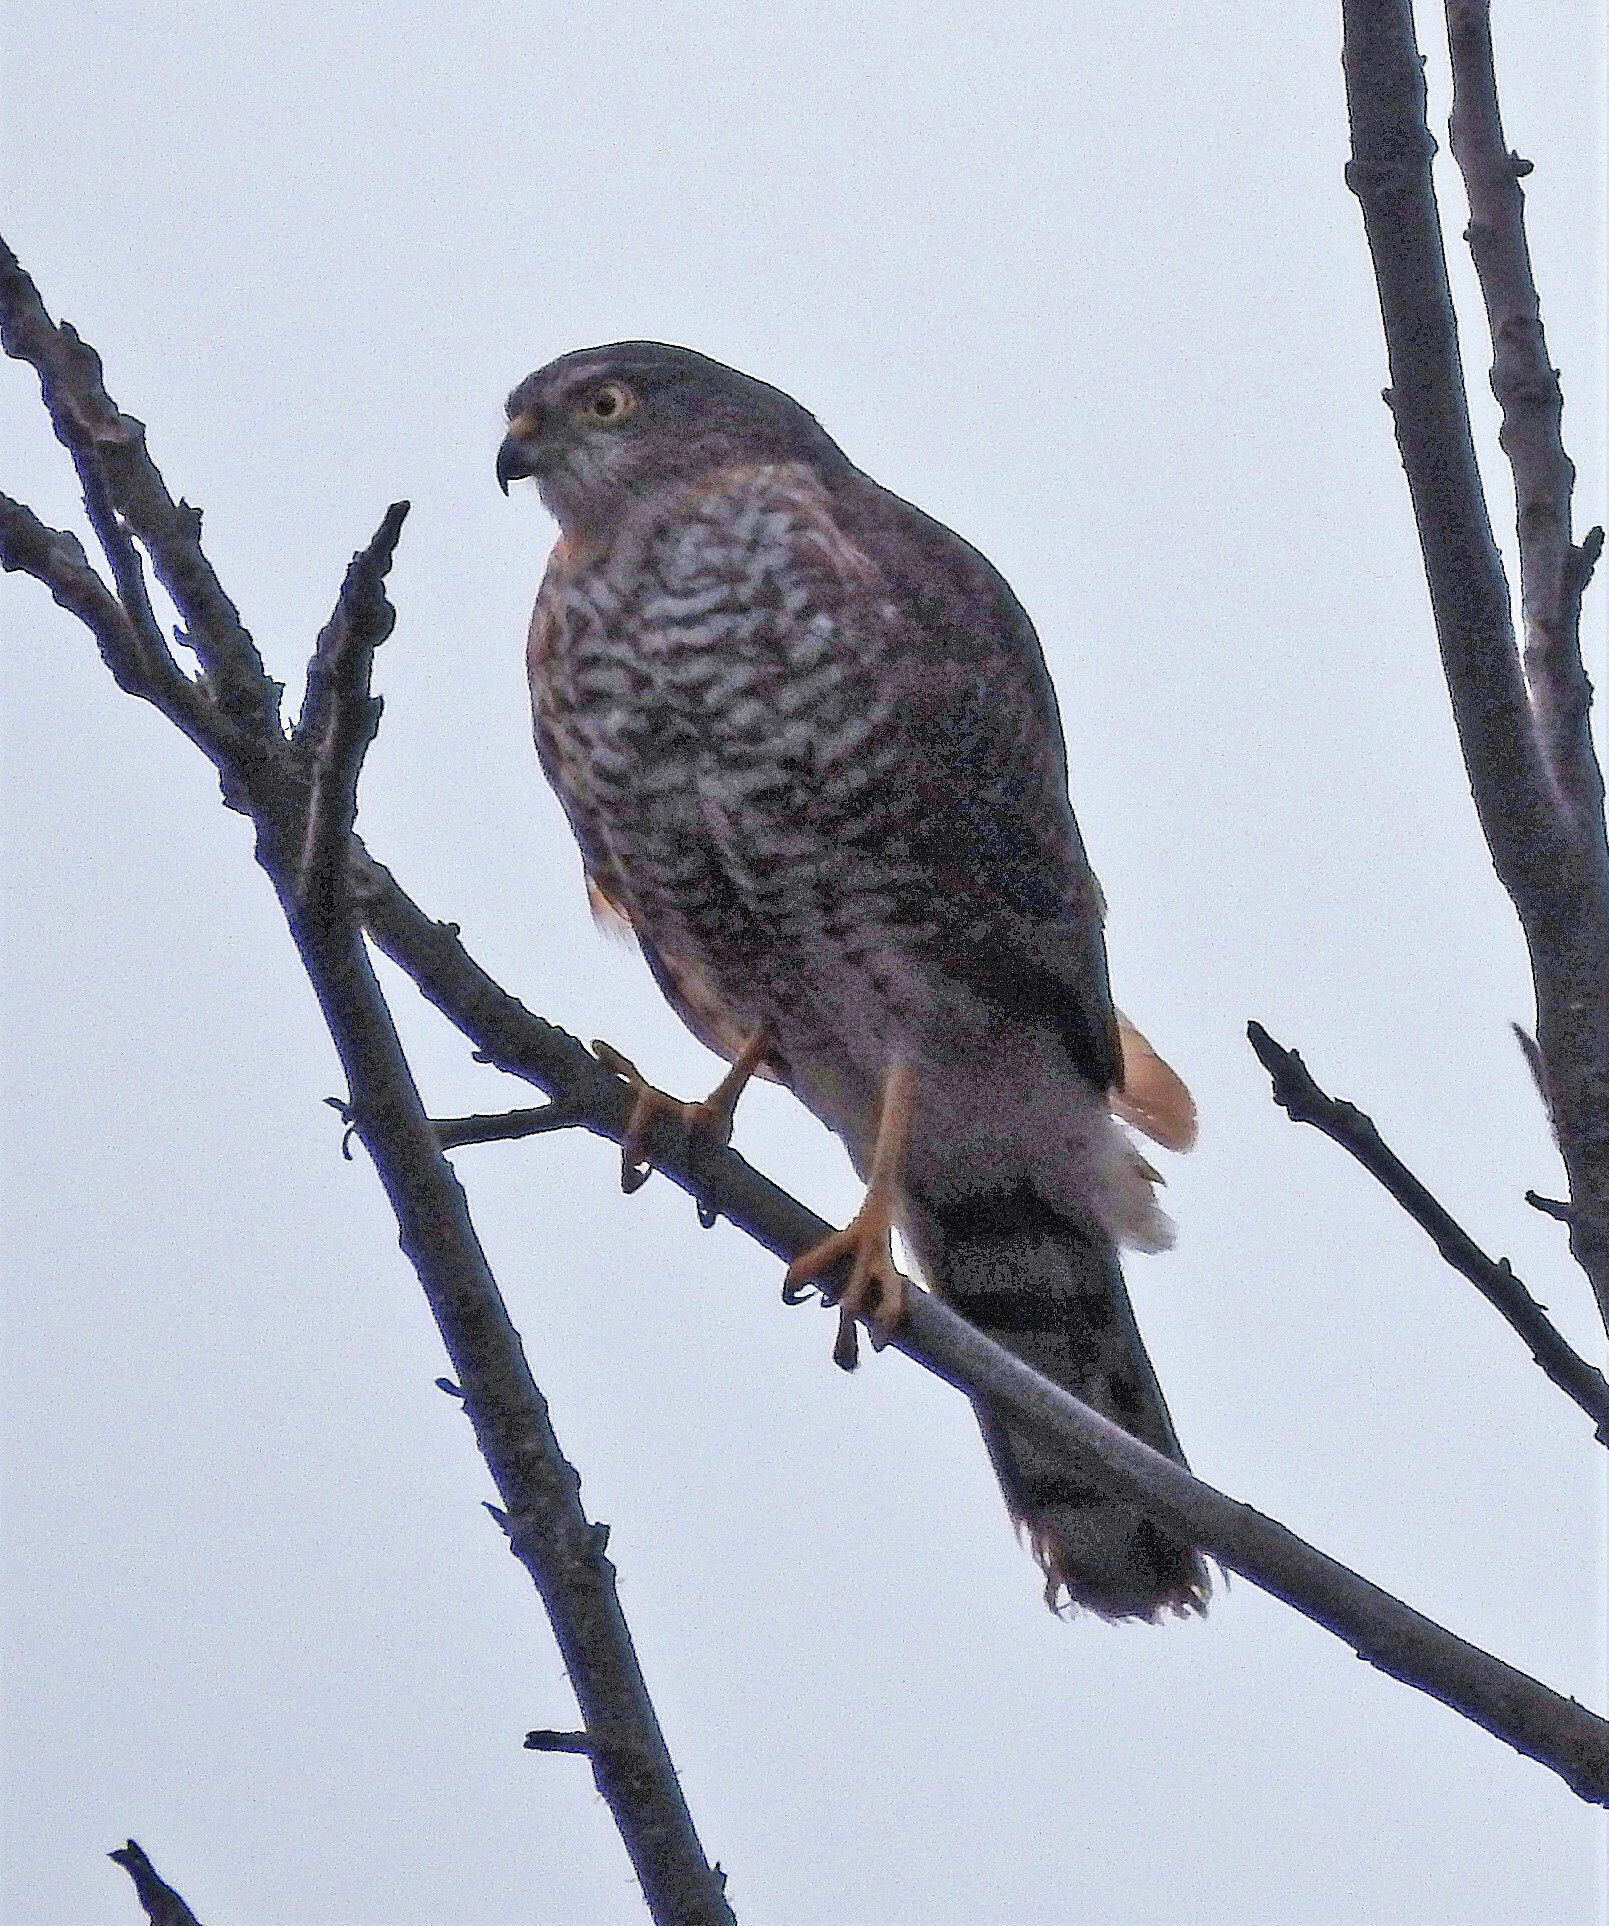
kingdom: Animalia
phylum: Chordata
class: Aves
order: Accipitriformes
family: Accipitridae
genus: Accipiter
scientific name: Accipiter striatus
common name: Sharp-shinned hawk
